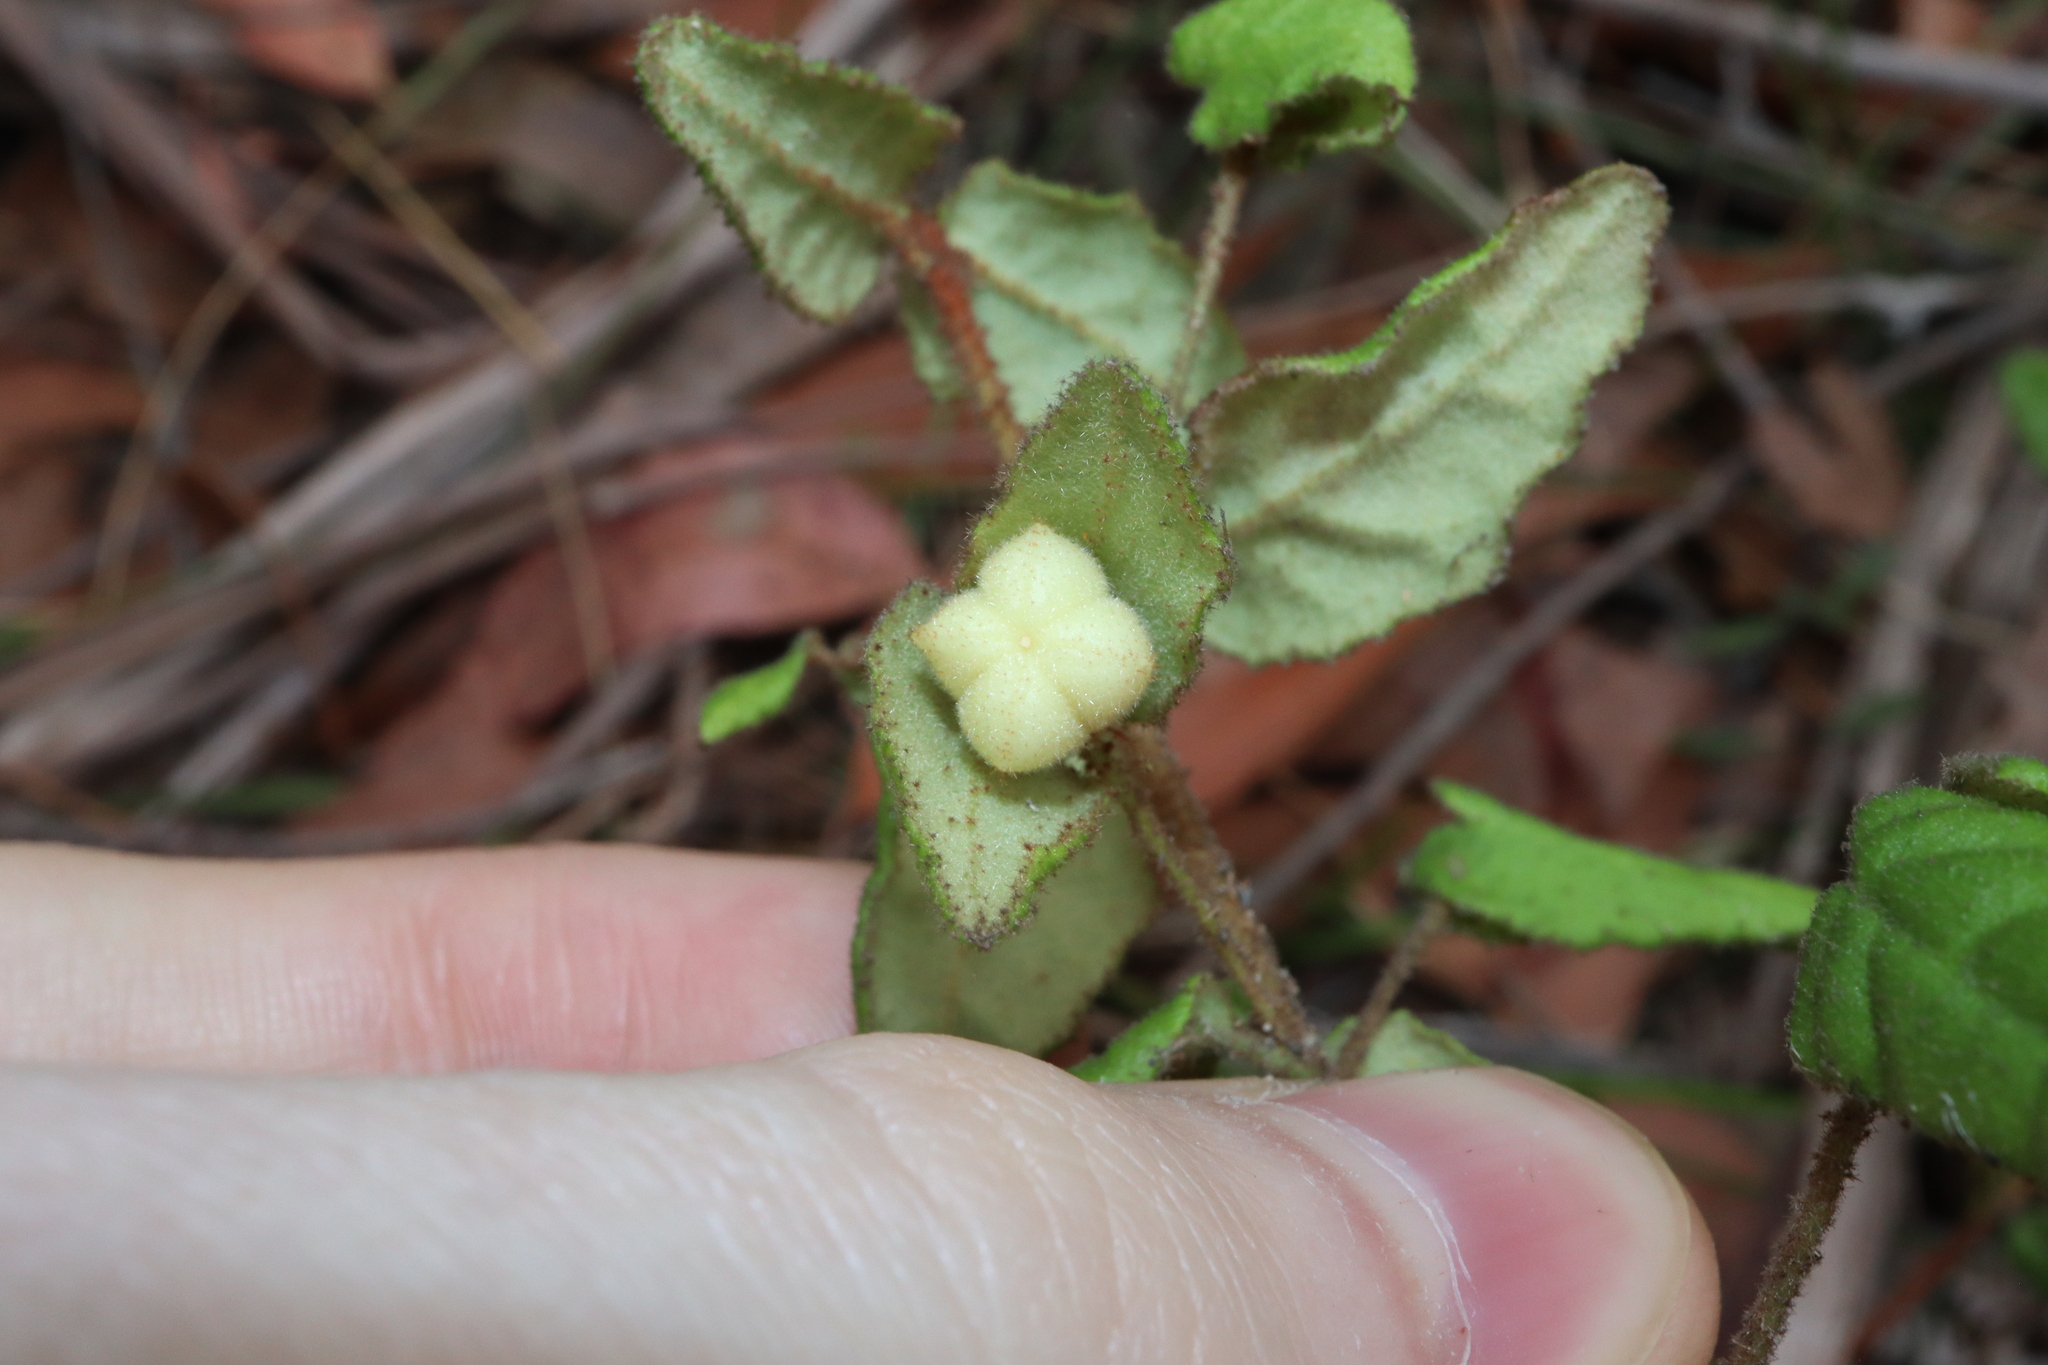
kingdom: Plantae
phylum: Tracheophyta
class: Magnoliopsida
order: Sapindales
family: Rutaceae
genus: Correa
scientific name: Correa reflexa
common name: Common correa
